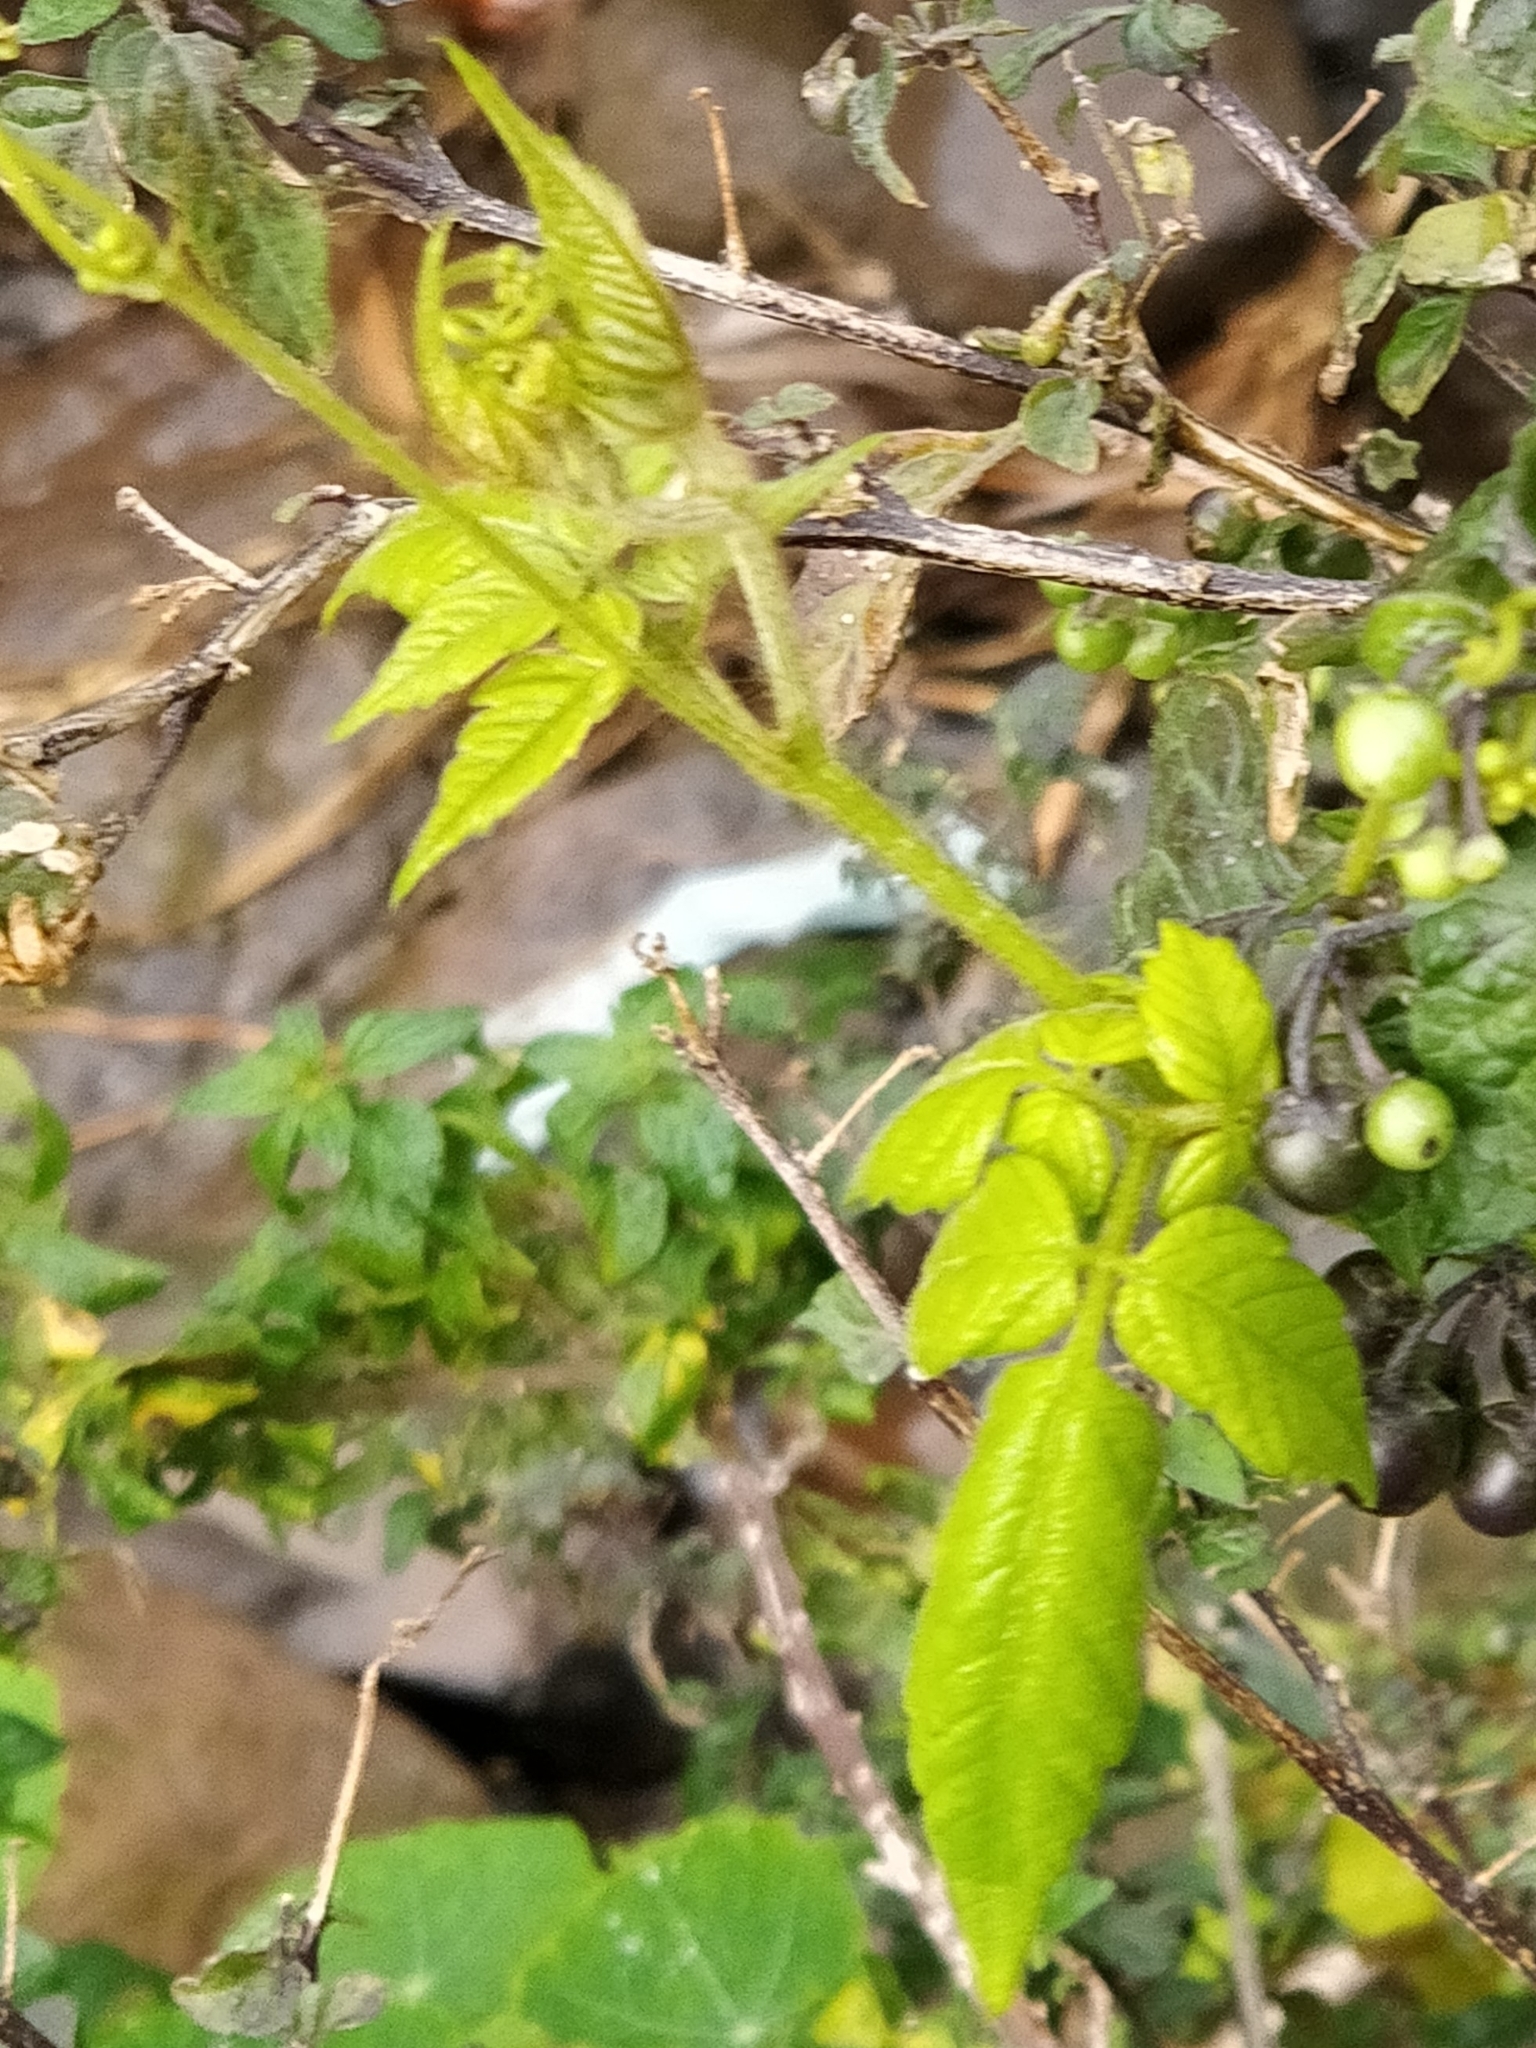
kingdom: Plantae
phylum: Tracheophyta
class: Magnoliopsida
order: Sapindales
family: Sapindaceae
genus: Cardiospermum
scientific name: Cardiospermum grandiflorum
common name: Balloon vine
